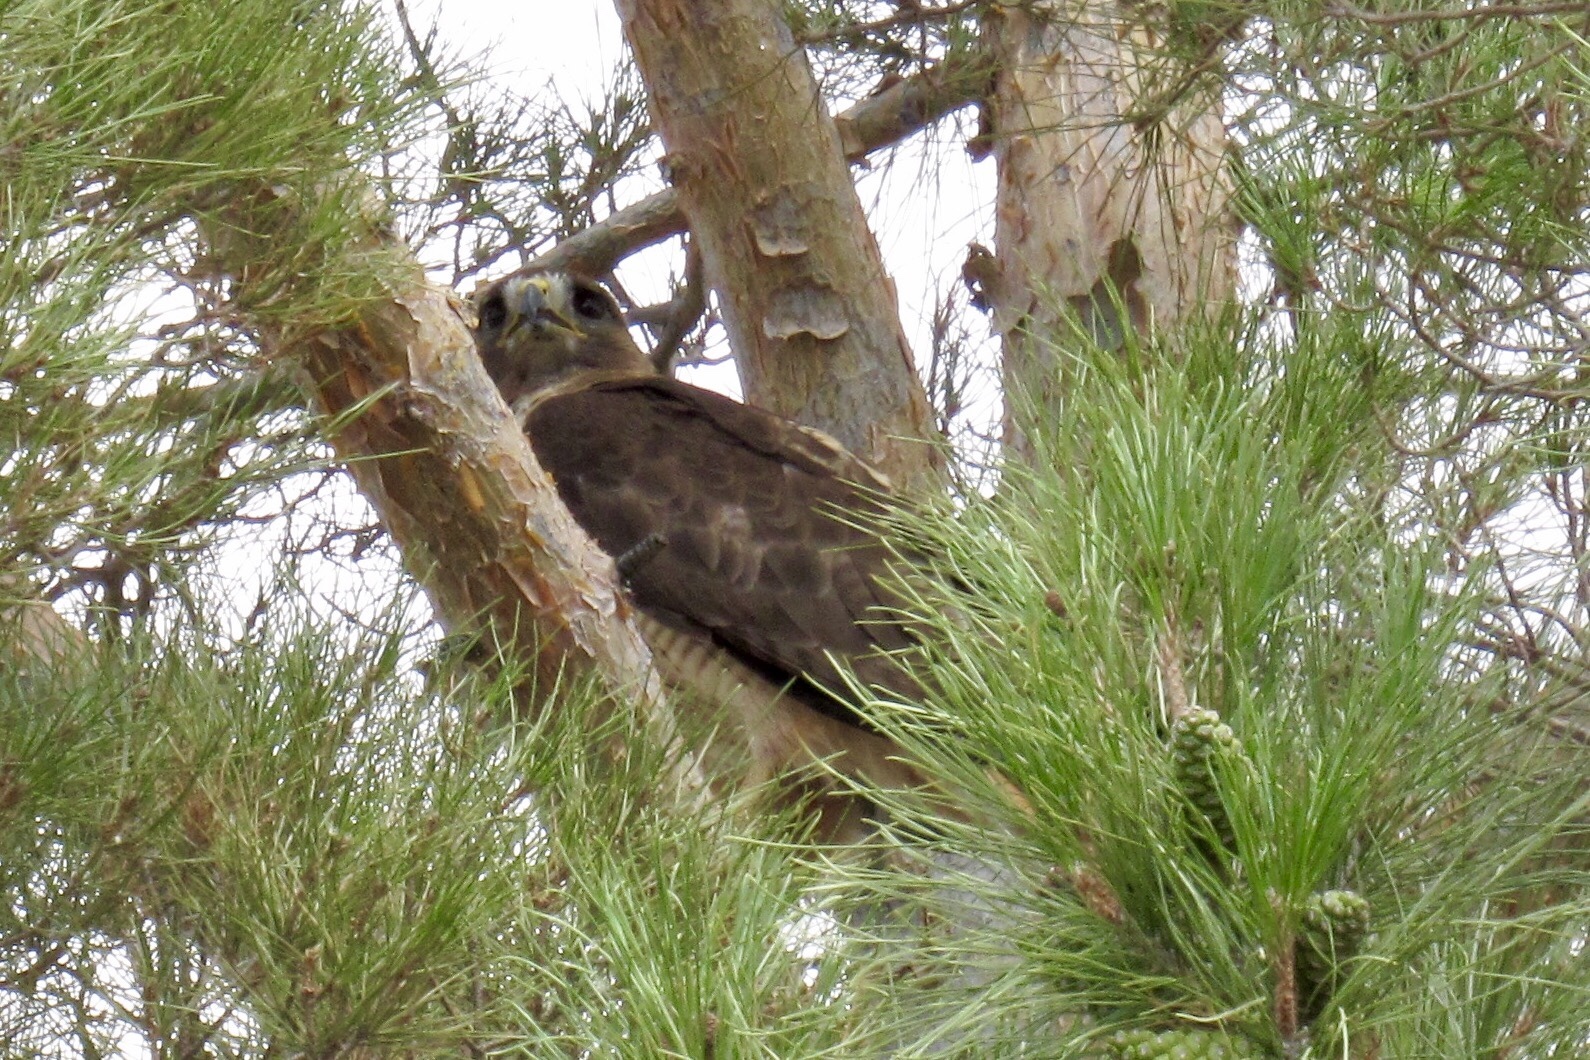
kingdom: Animalia
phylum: Chordata
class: Aves
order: Accipitriformes
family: Accipitridae
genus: Buteo
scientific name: Buteo jamaicensis
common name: Red-tailed hawk
